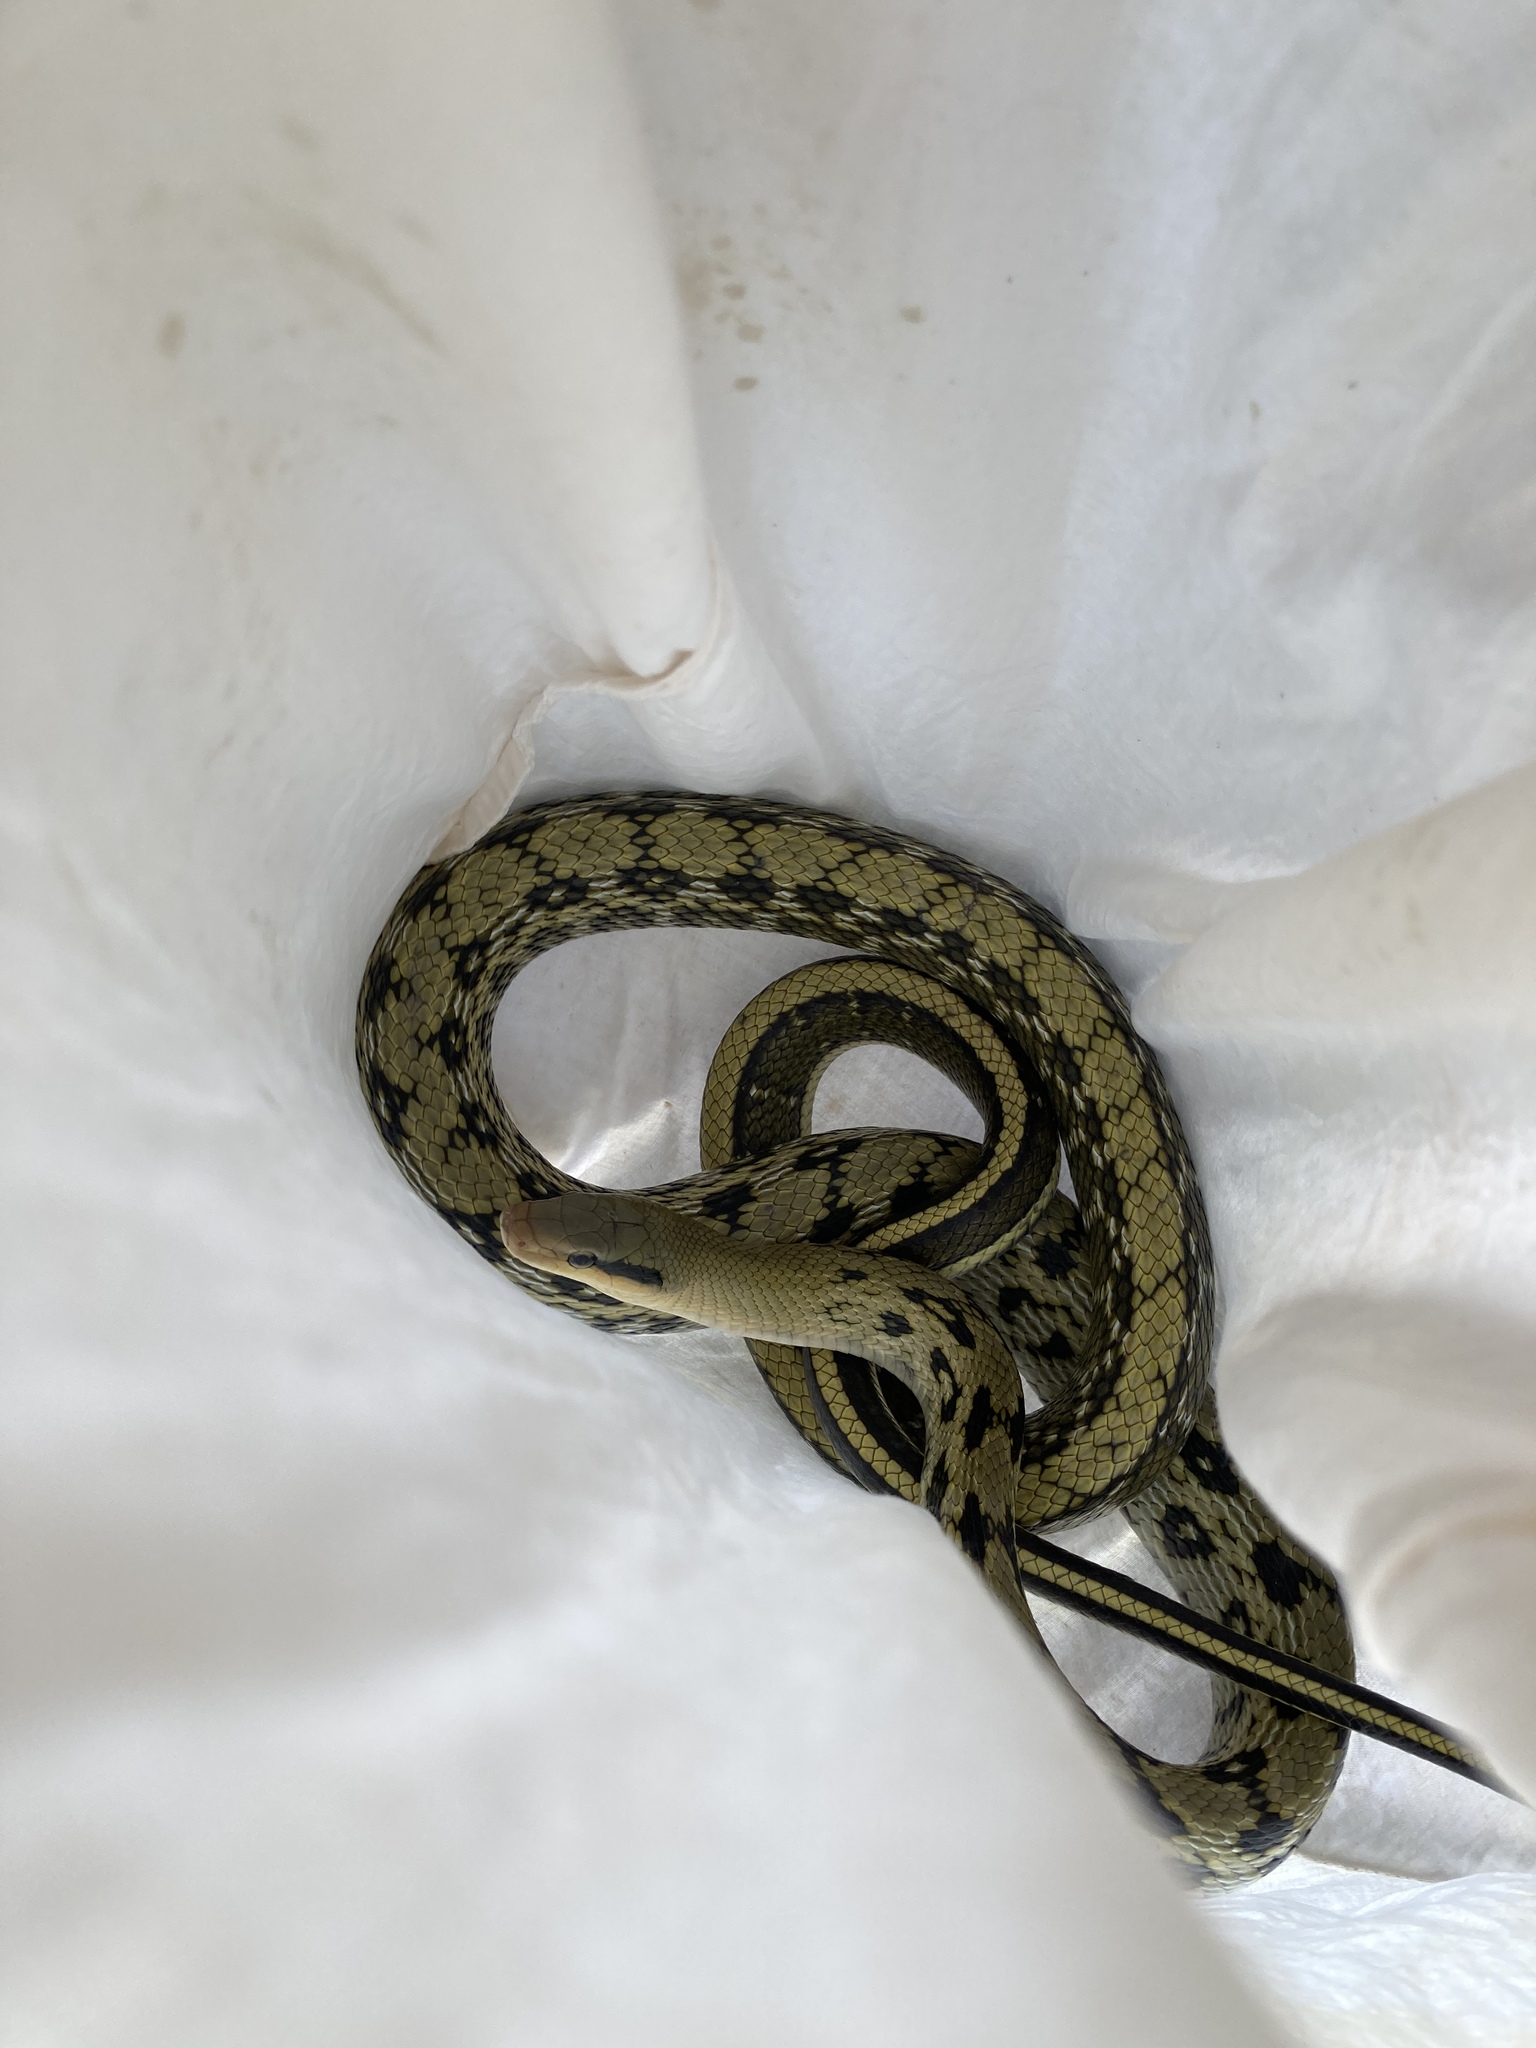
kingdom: Animalia
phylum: Chordata
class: Squamata
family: Colubridae
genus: Elaphe
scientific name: Elaphe taeniura
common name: Beauty snake
